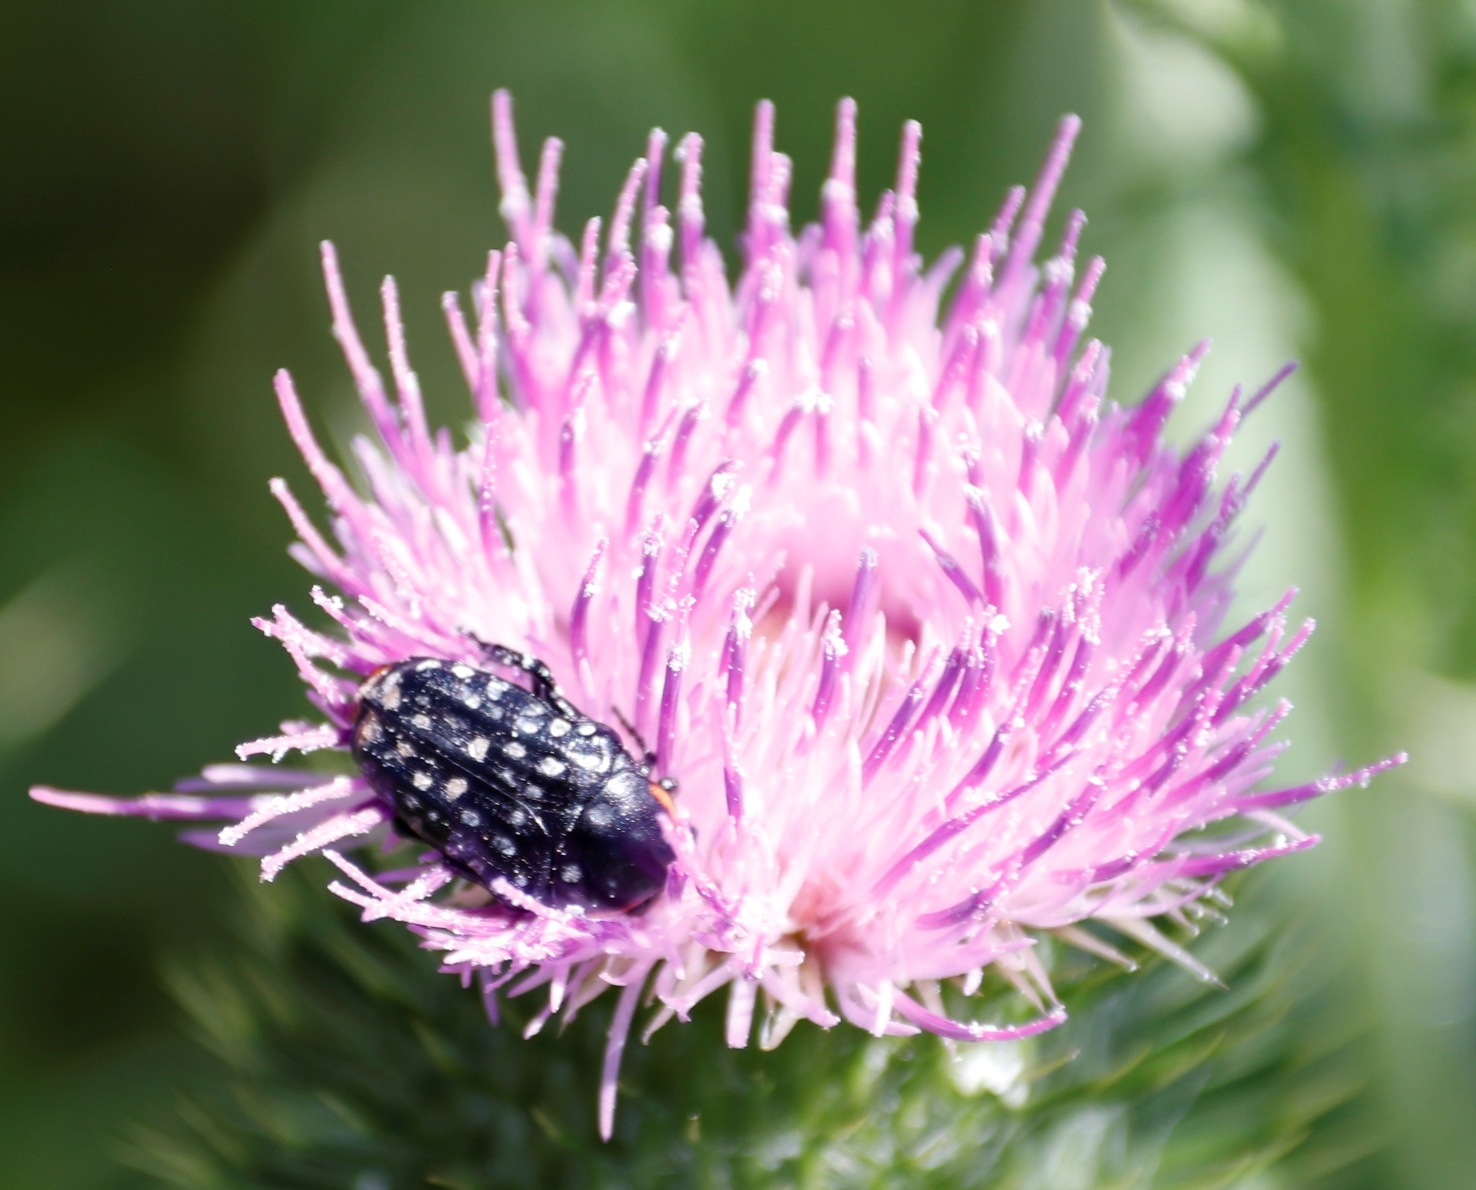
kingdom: Animalia
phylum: Arthropoda
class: Insecta
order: Coleoptera
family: Scarabaeidae
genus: Oxythyrea
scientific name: Oxythyrea
